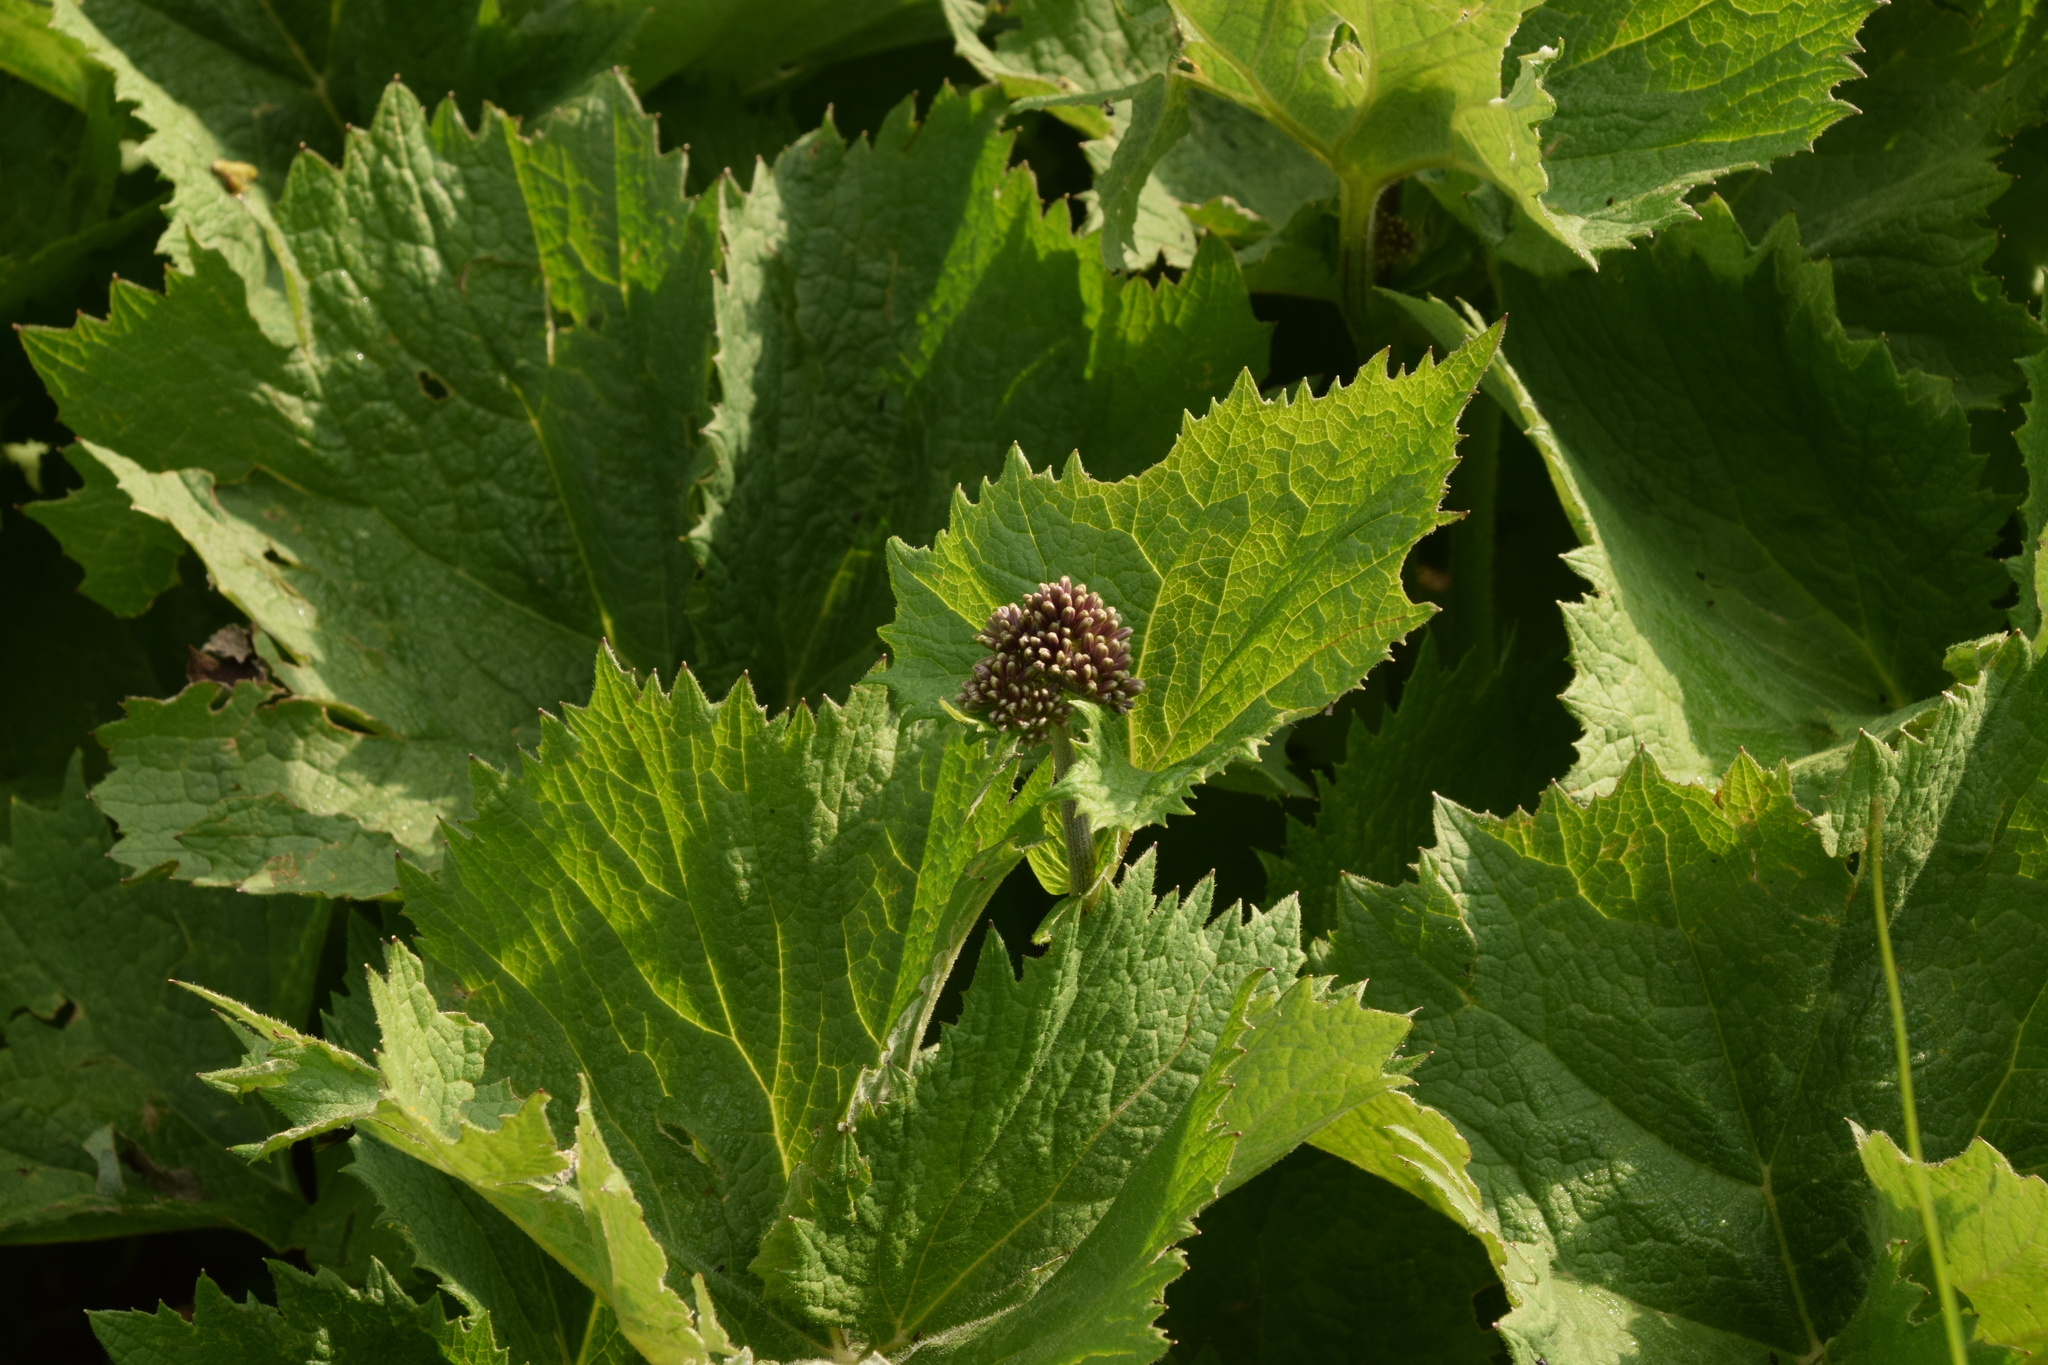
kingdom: Plantae
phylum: Tracheophyta
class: Magnoliopsida
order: Asterales
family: Asteraceae
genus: Adenostyles
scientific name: Adenostyles alliariae
